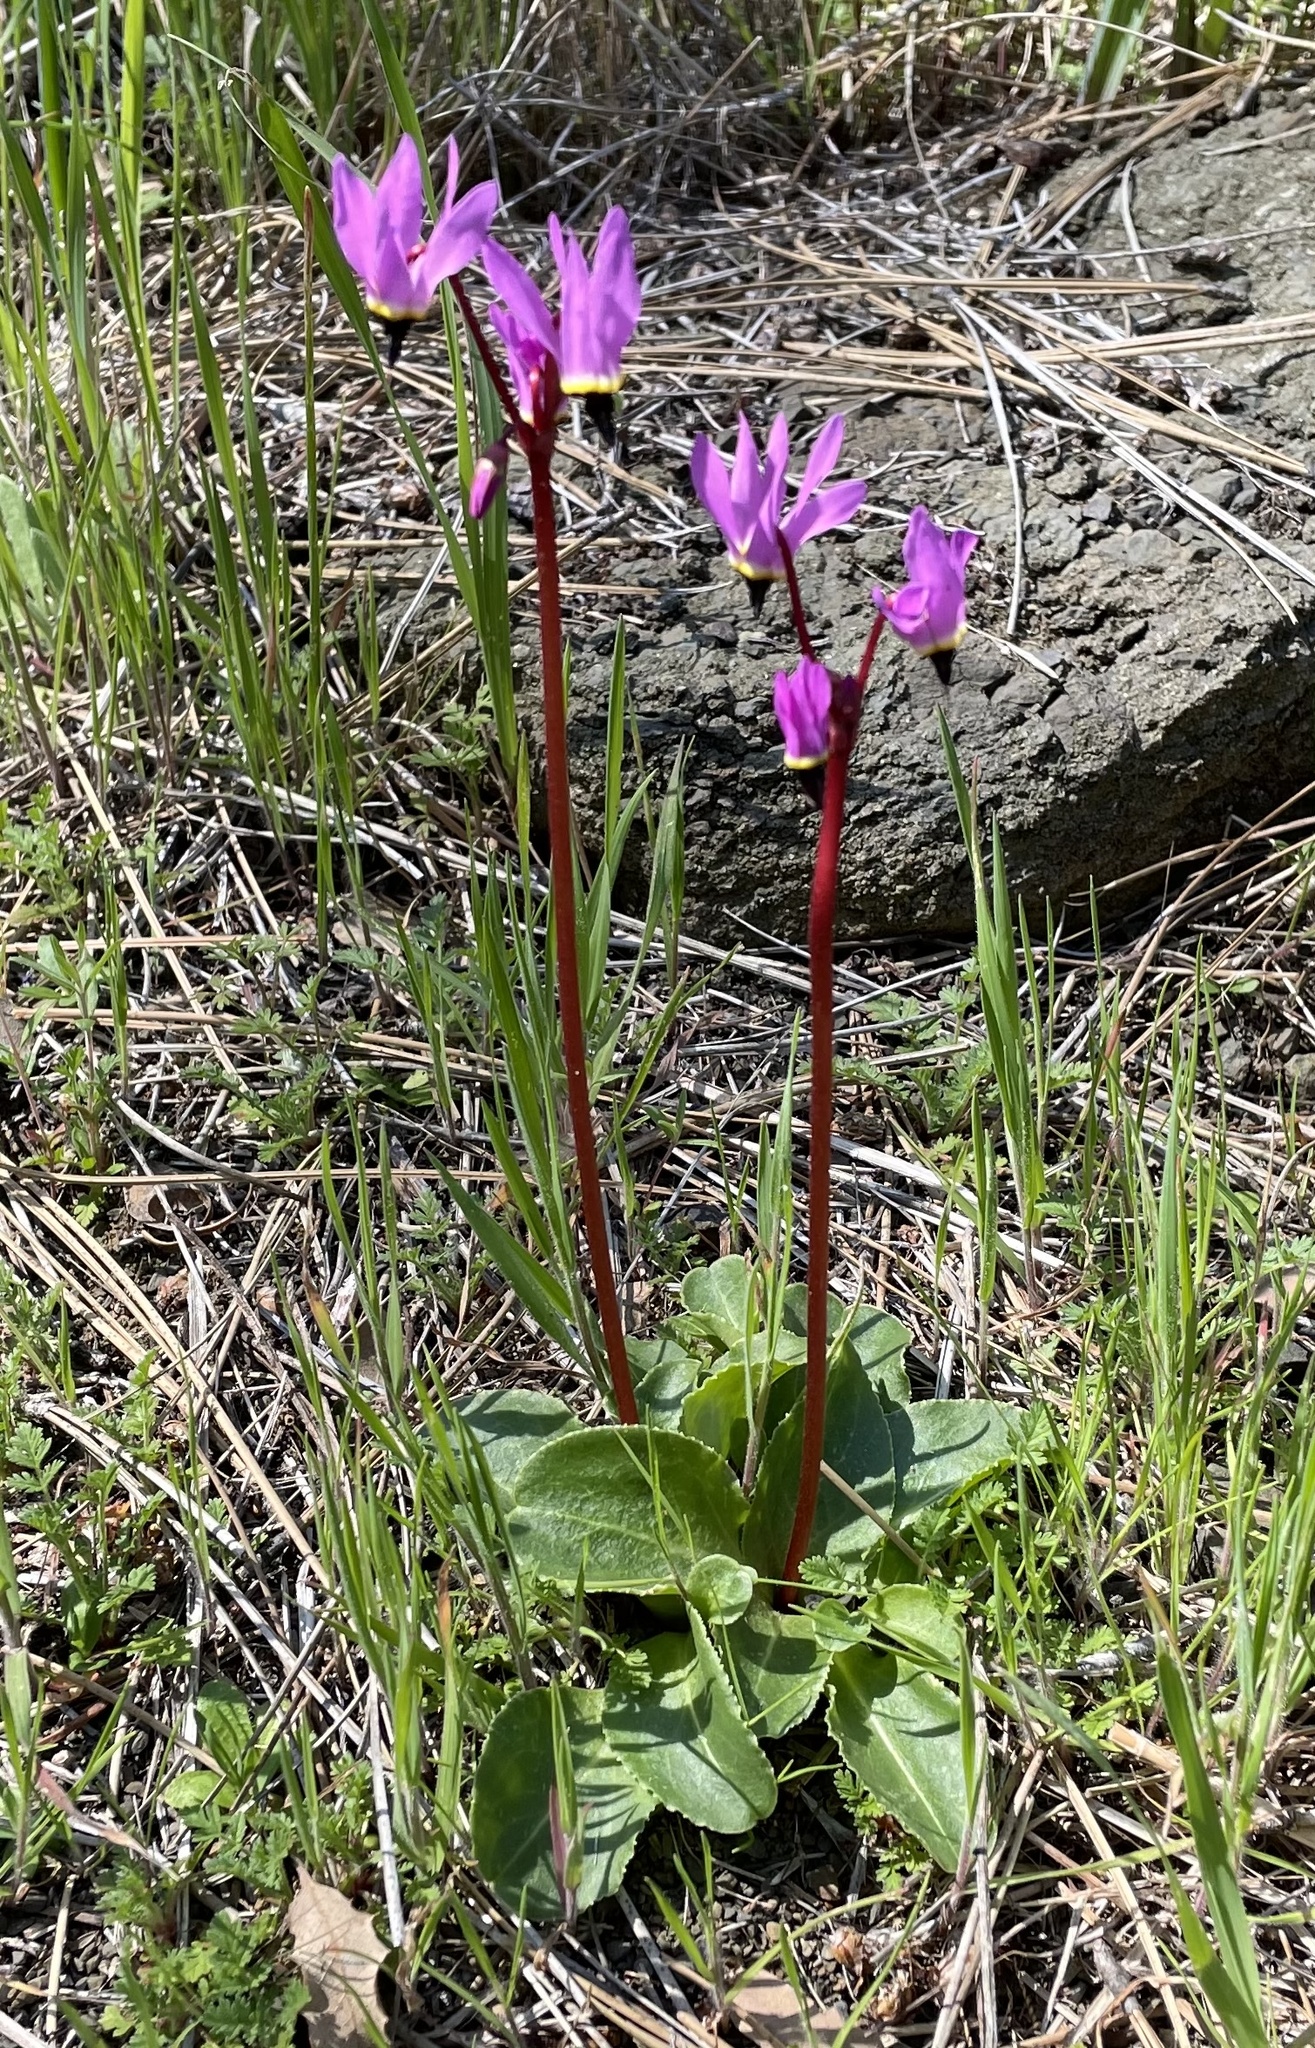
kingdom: Plantae
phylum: Tracheophyta
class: Magnoliopsida
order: Ericales
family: Primulaceae
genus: Dodecatheon
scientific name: Dodecatheon hendersonii
